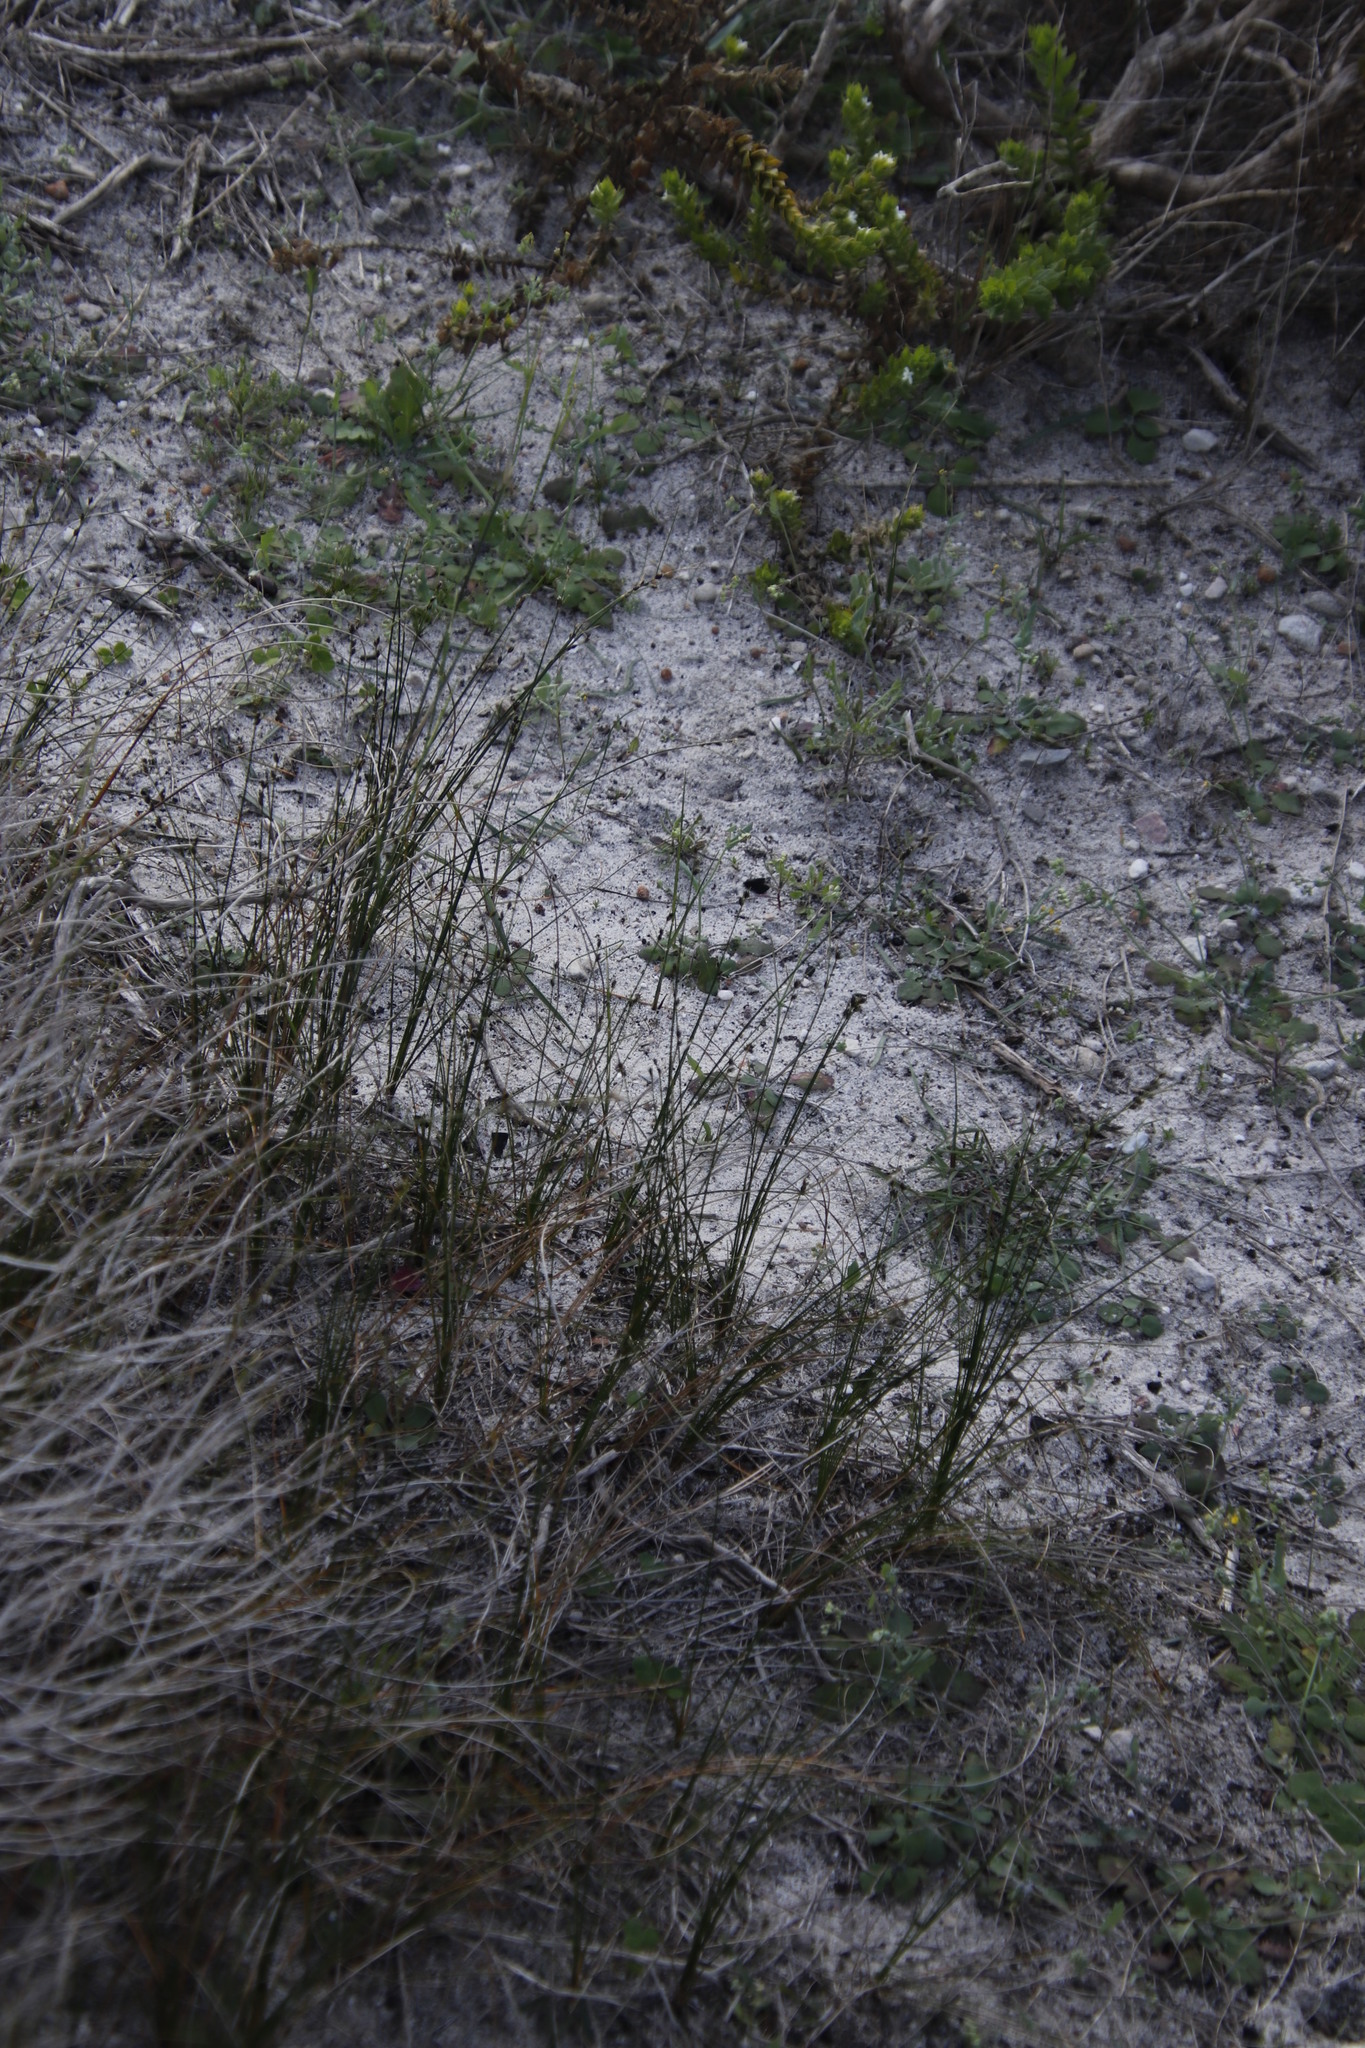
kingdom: Plantae
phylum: Tracheophyta
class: Liliopsida
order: Poales
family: Cyperaceae
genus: Ficinia
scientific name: Ficinia secunda
